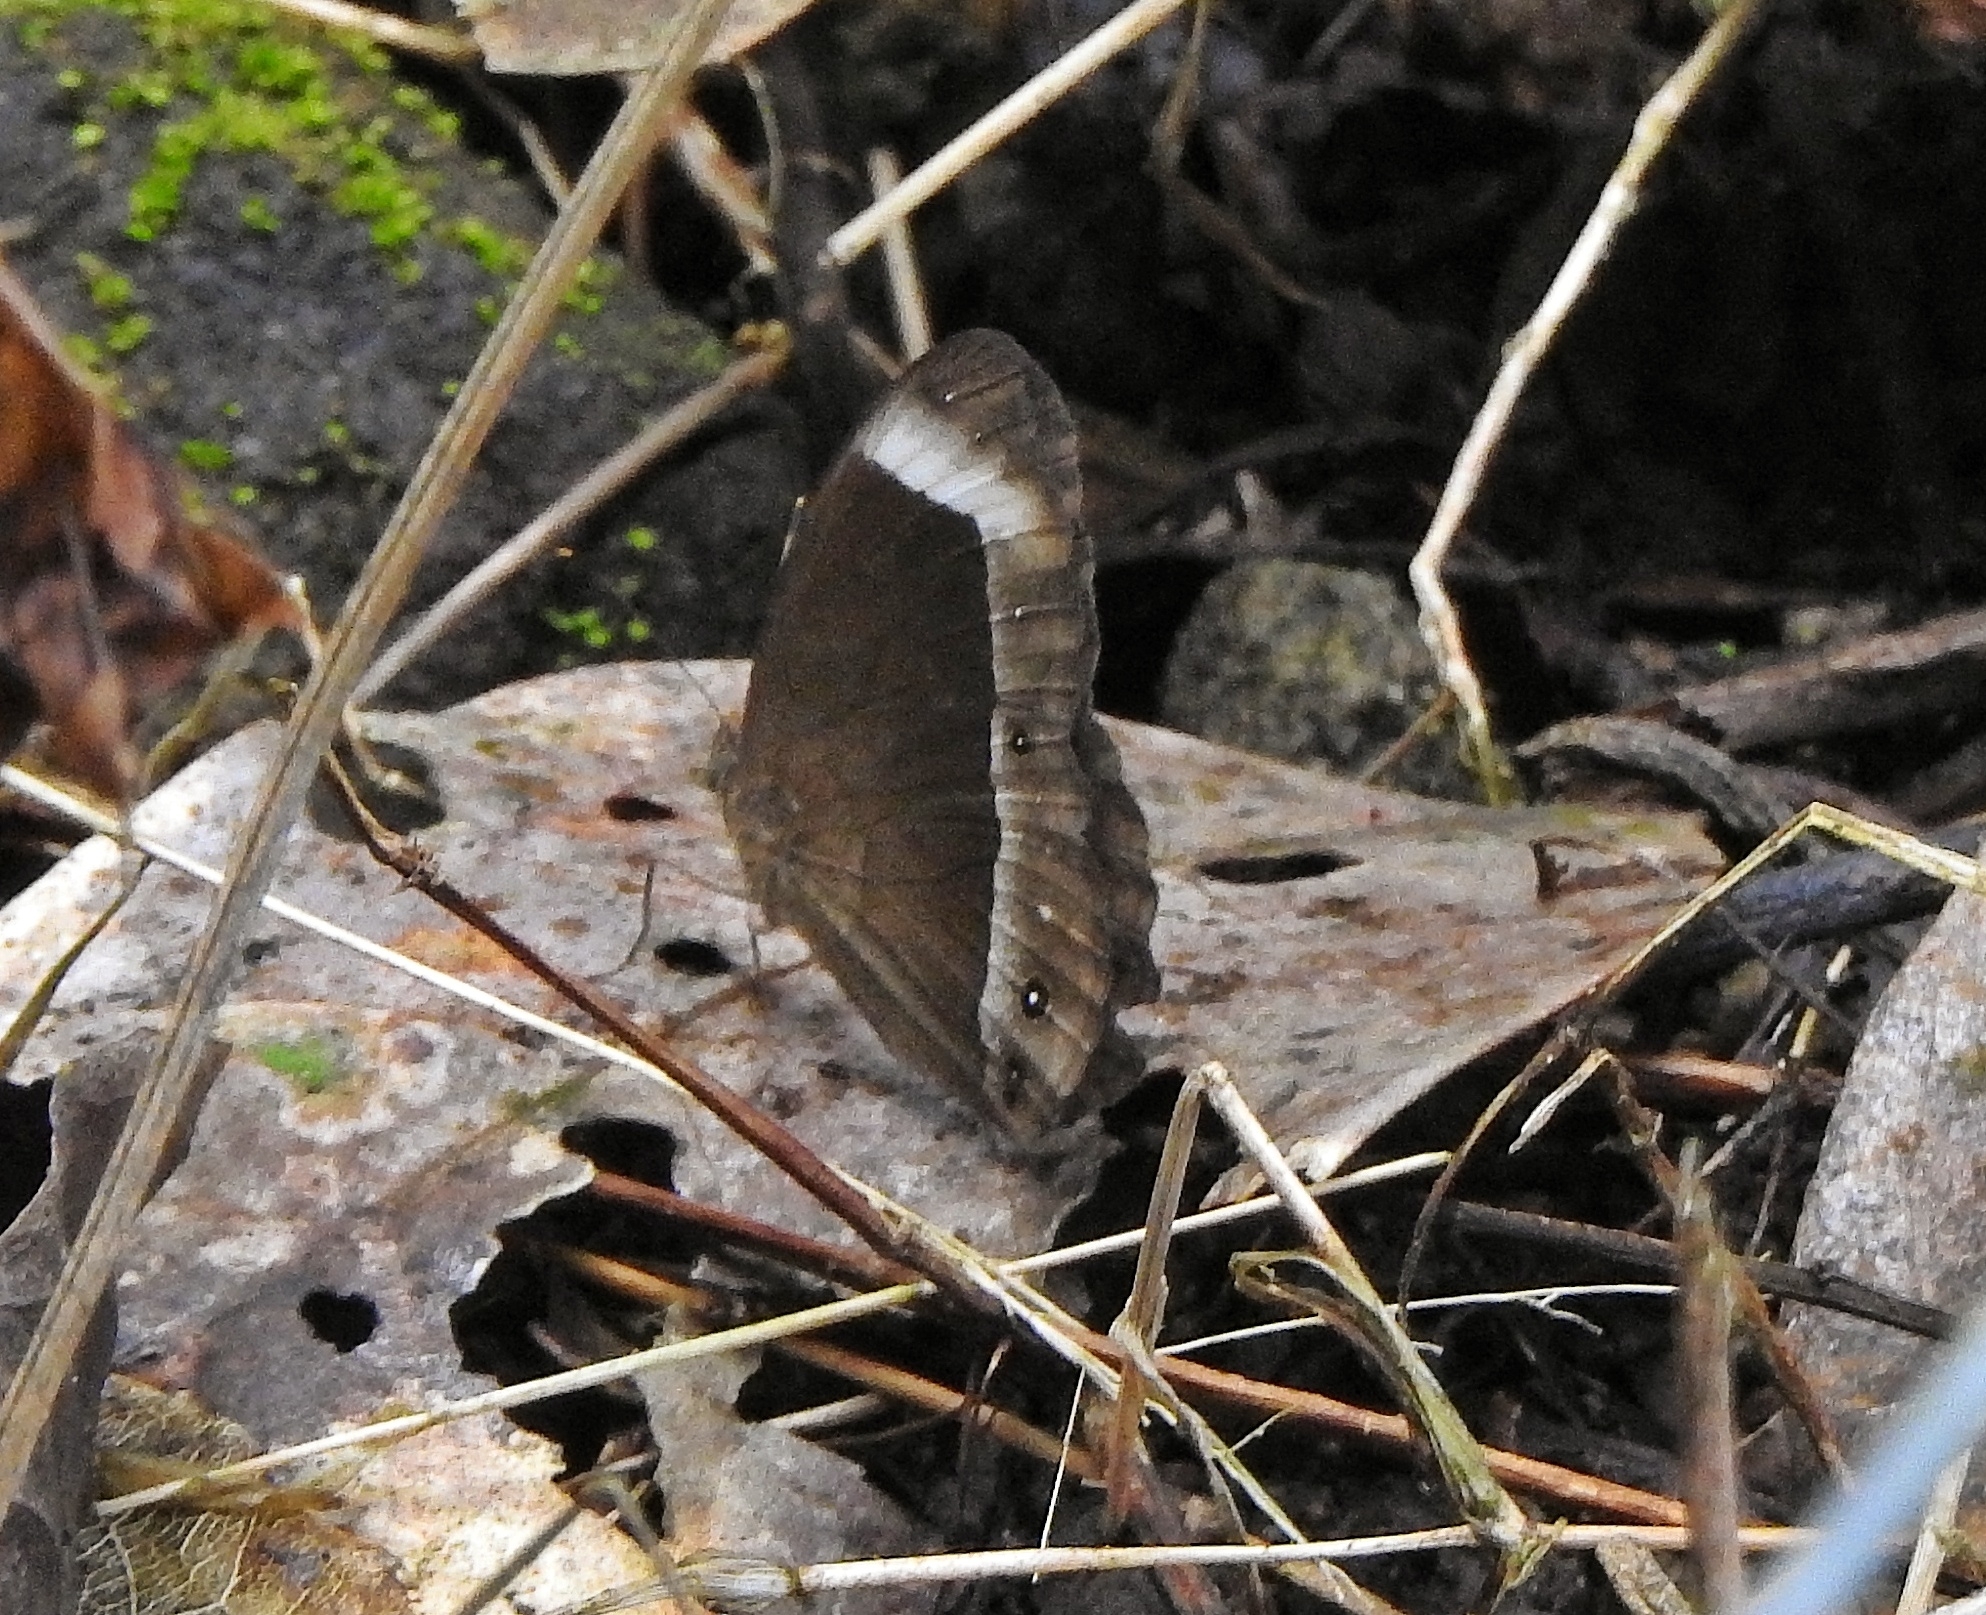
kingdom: Animalia
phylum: Arthropoda
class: Insecta
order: Lepidoptera
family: Nymphalidae
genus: Mycalesis
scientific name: Mycalesis anaxias
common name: White-bar bushbrown
